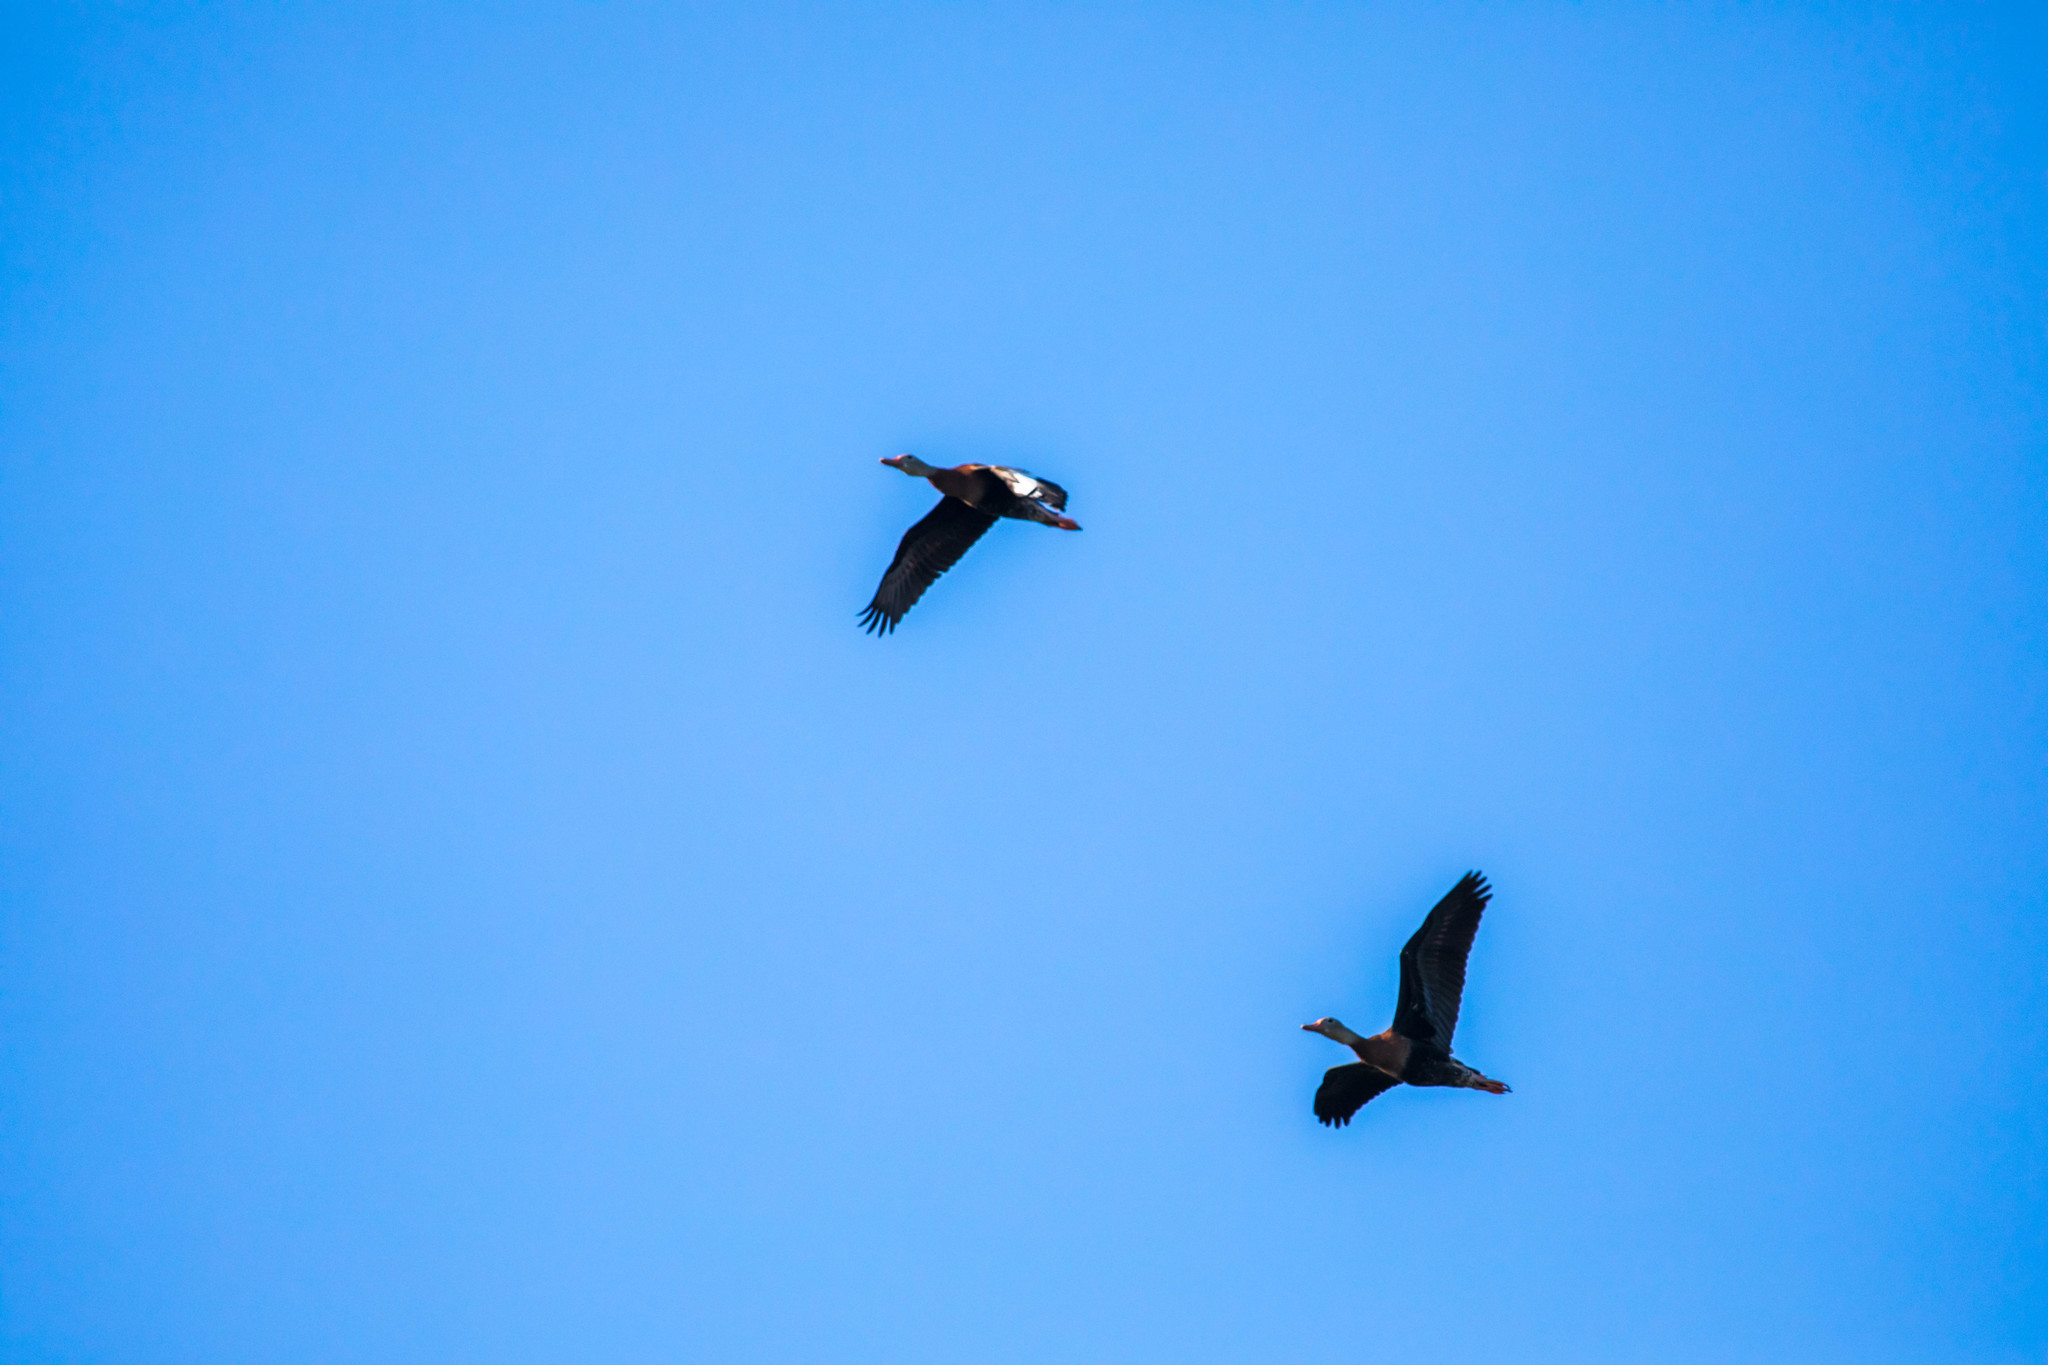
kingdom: Animalia
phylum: Chordata
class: Aves
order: Anseriformes
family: Anatidae
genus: Dendrocygna
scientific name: Dendrocygna autumnalis
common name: Black-bellied whistling duck
